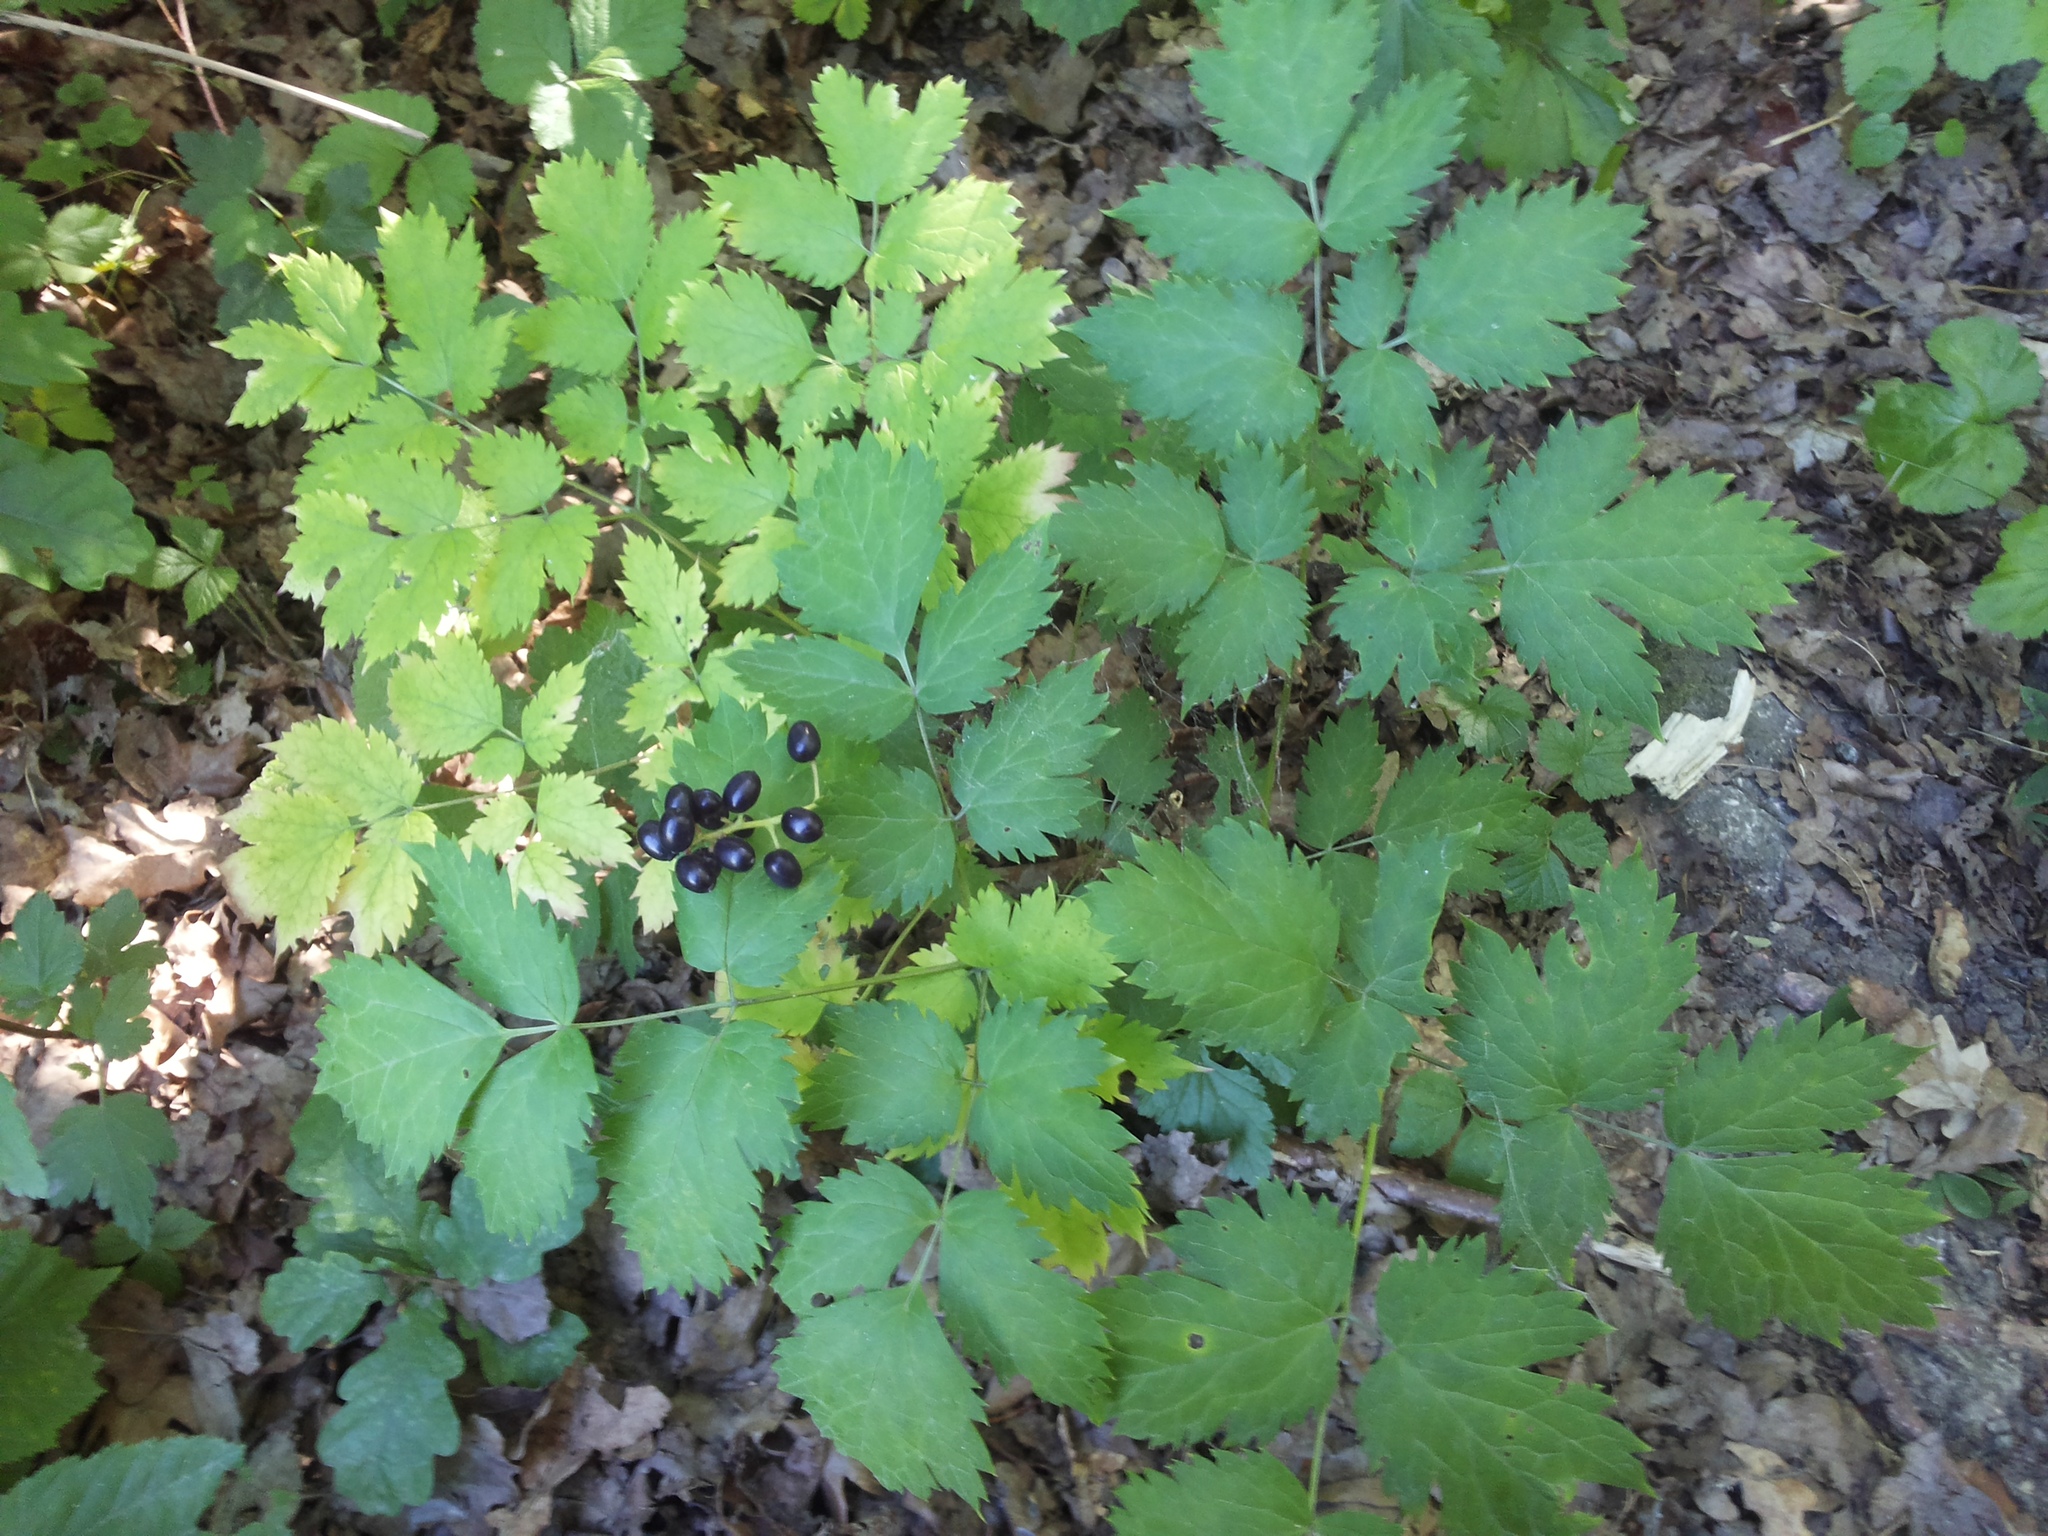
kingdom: Plantae
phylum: Tracheophyta
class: Magnoliopsida
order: Ranunculales
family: Ranunculaceae
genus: Actaea
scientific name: Actaea spicata
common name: Baneberry
